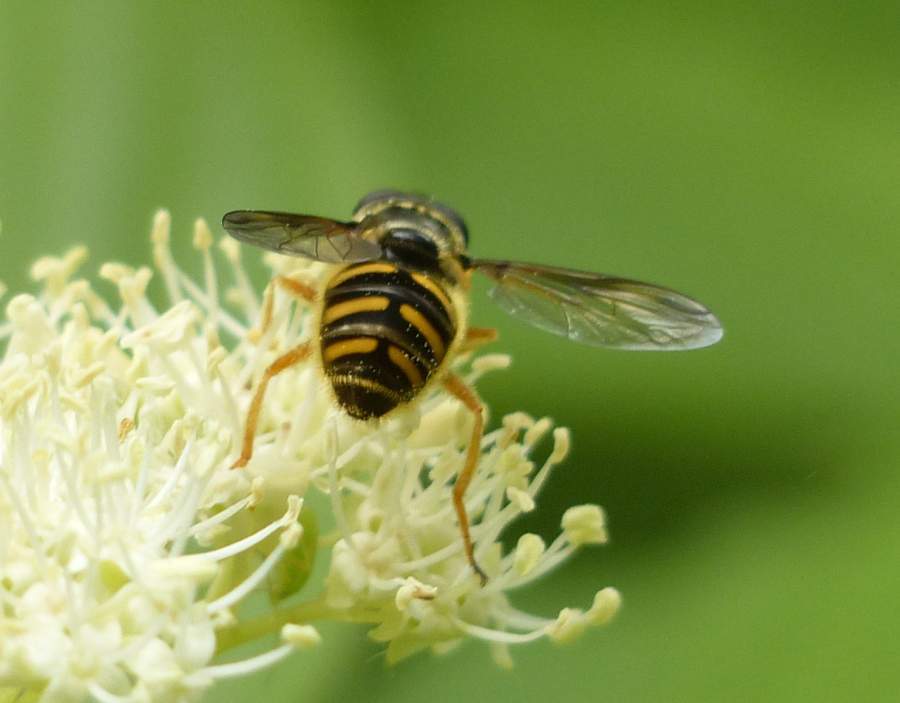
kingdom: Animalia
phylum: Arthropoda
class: Insecta
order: Diptera
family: Syrphidae
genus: Sericomyia
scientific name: Sericomyia chrysotoxoides
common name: Oblique-banded pond fly
